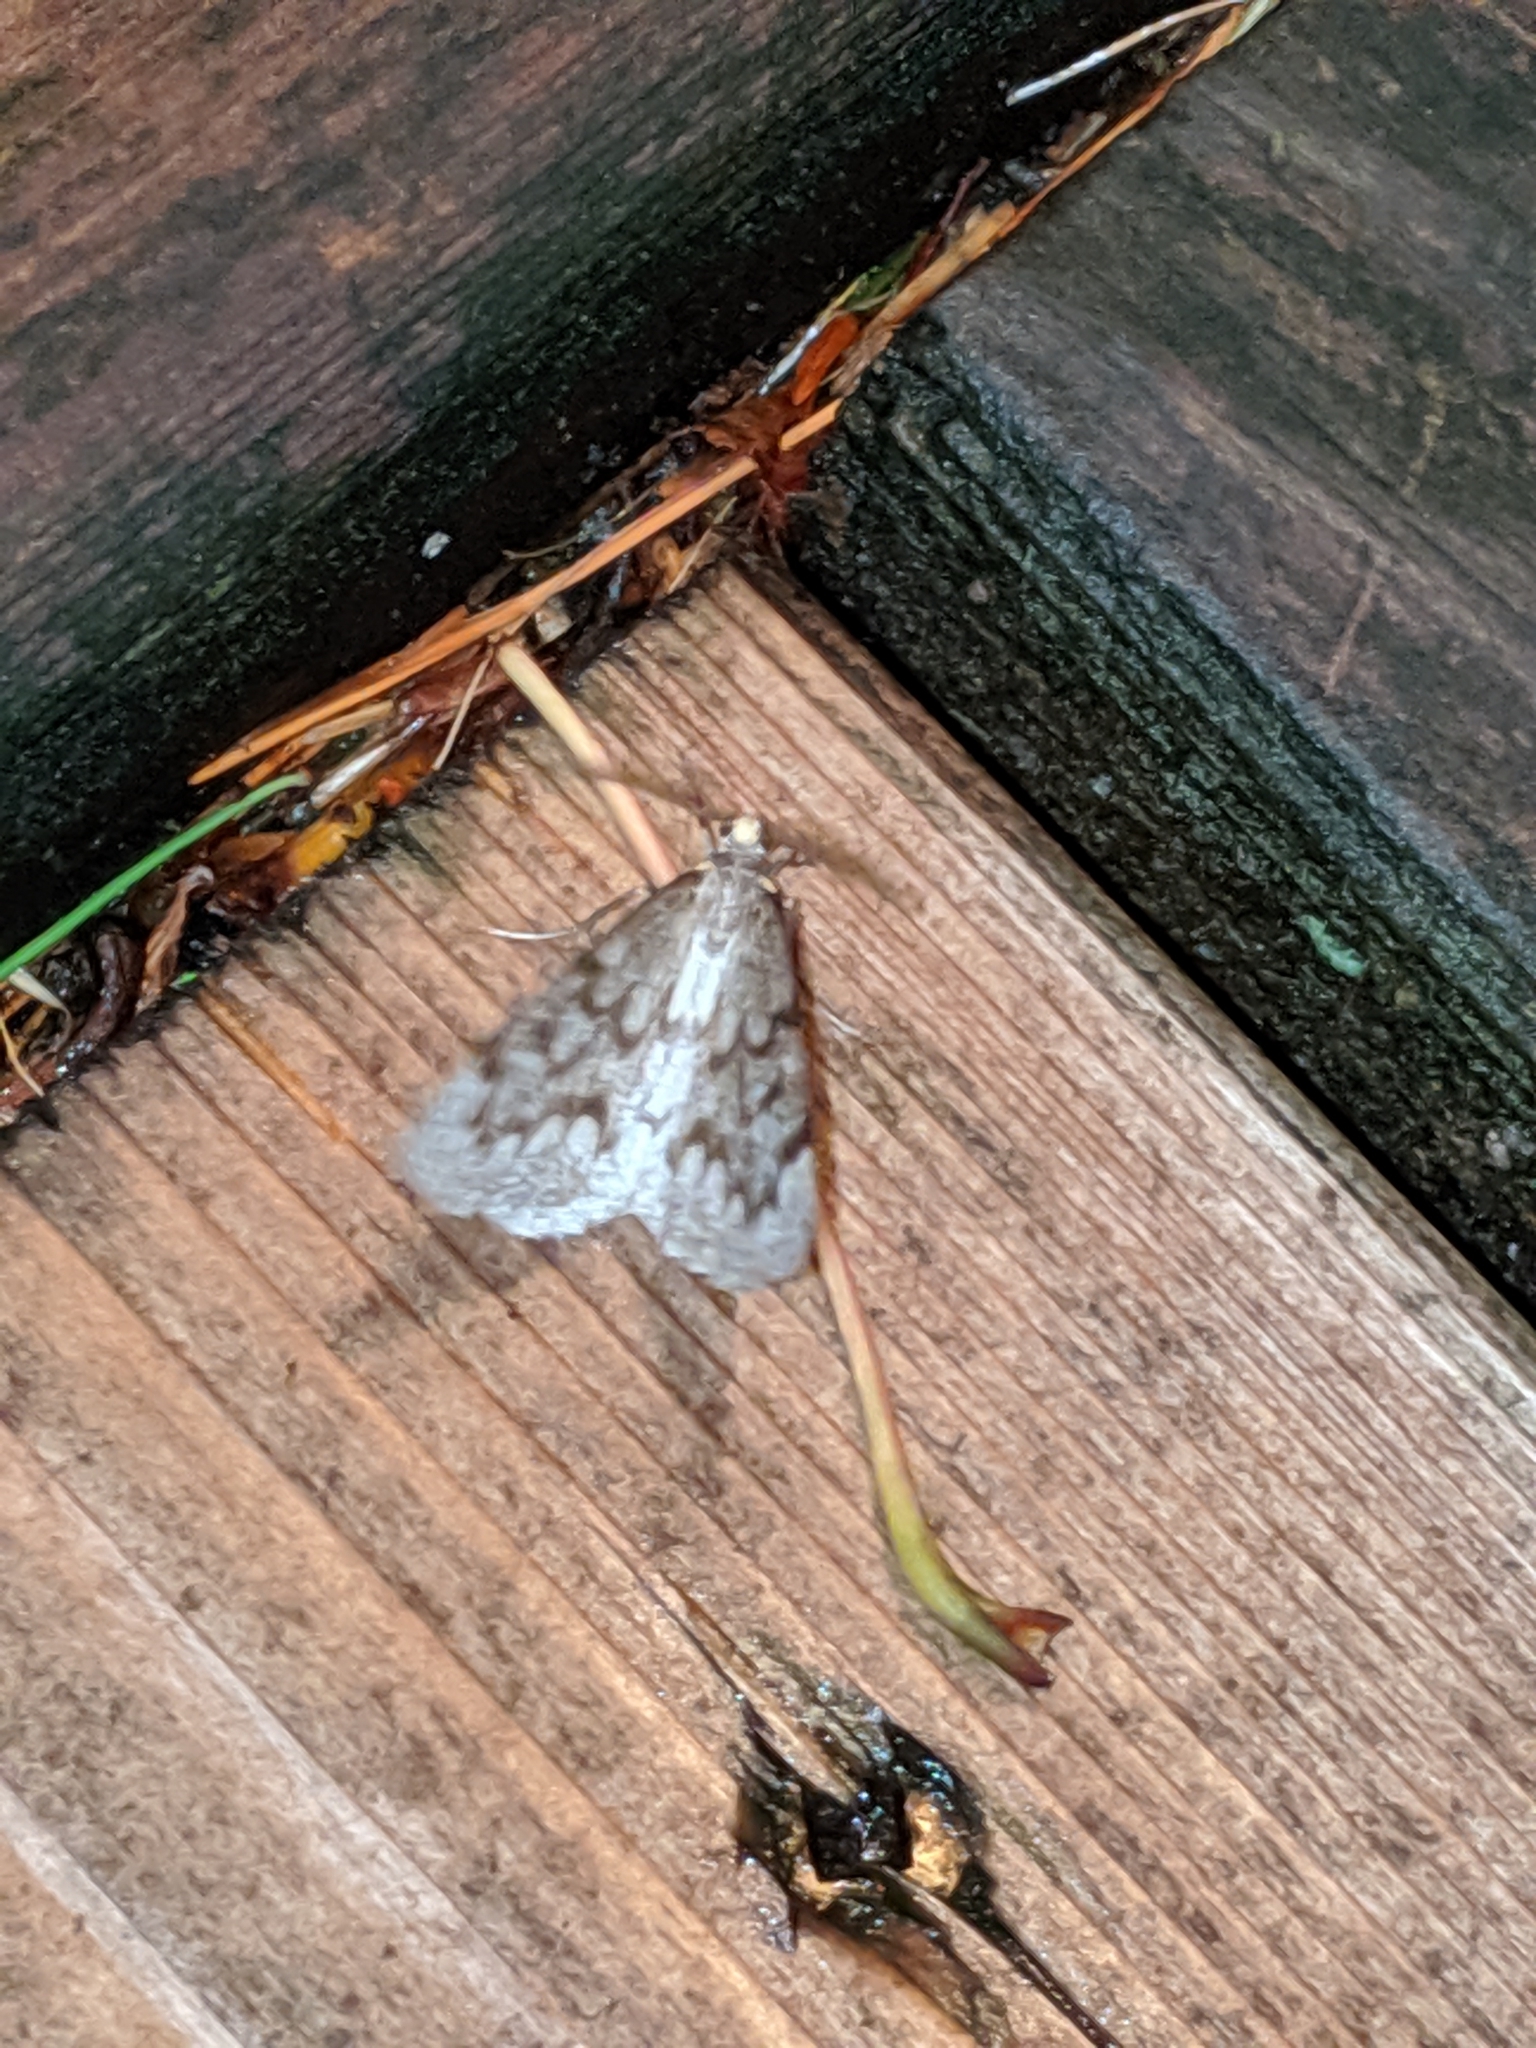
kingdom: Animalia
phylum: Arthropoda
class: Insecta
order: Lepidoptera
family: Geometridae
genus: Nepytia
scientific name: Nepytia canosaria
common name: False hemlock looper
